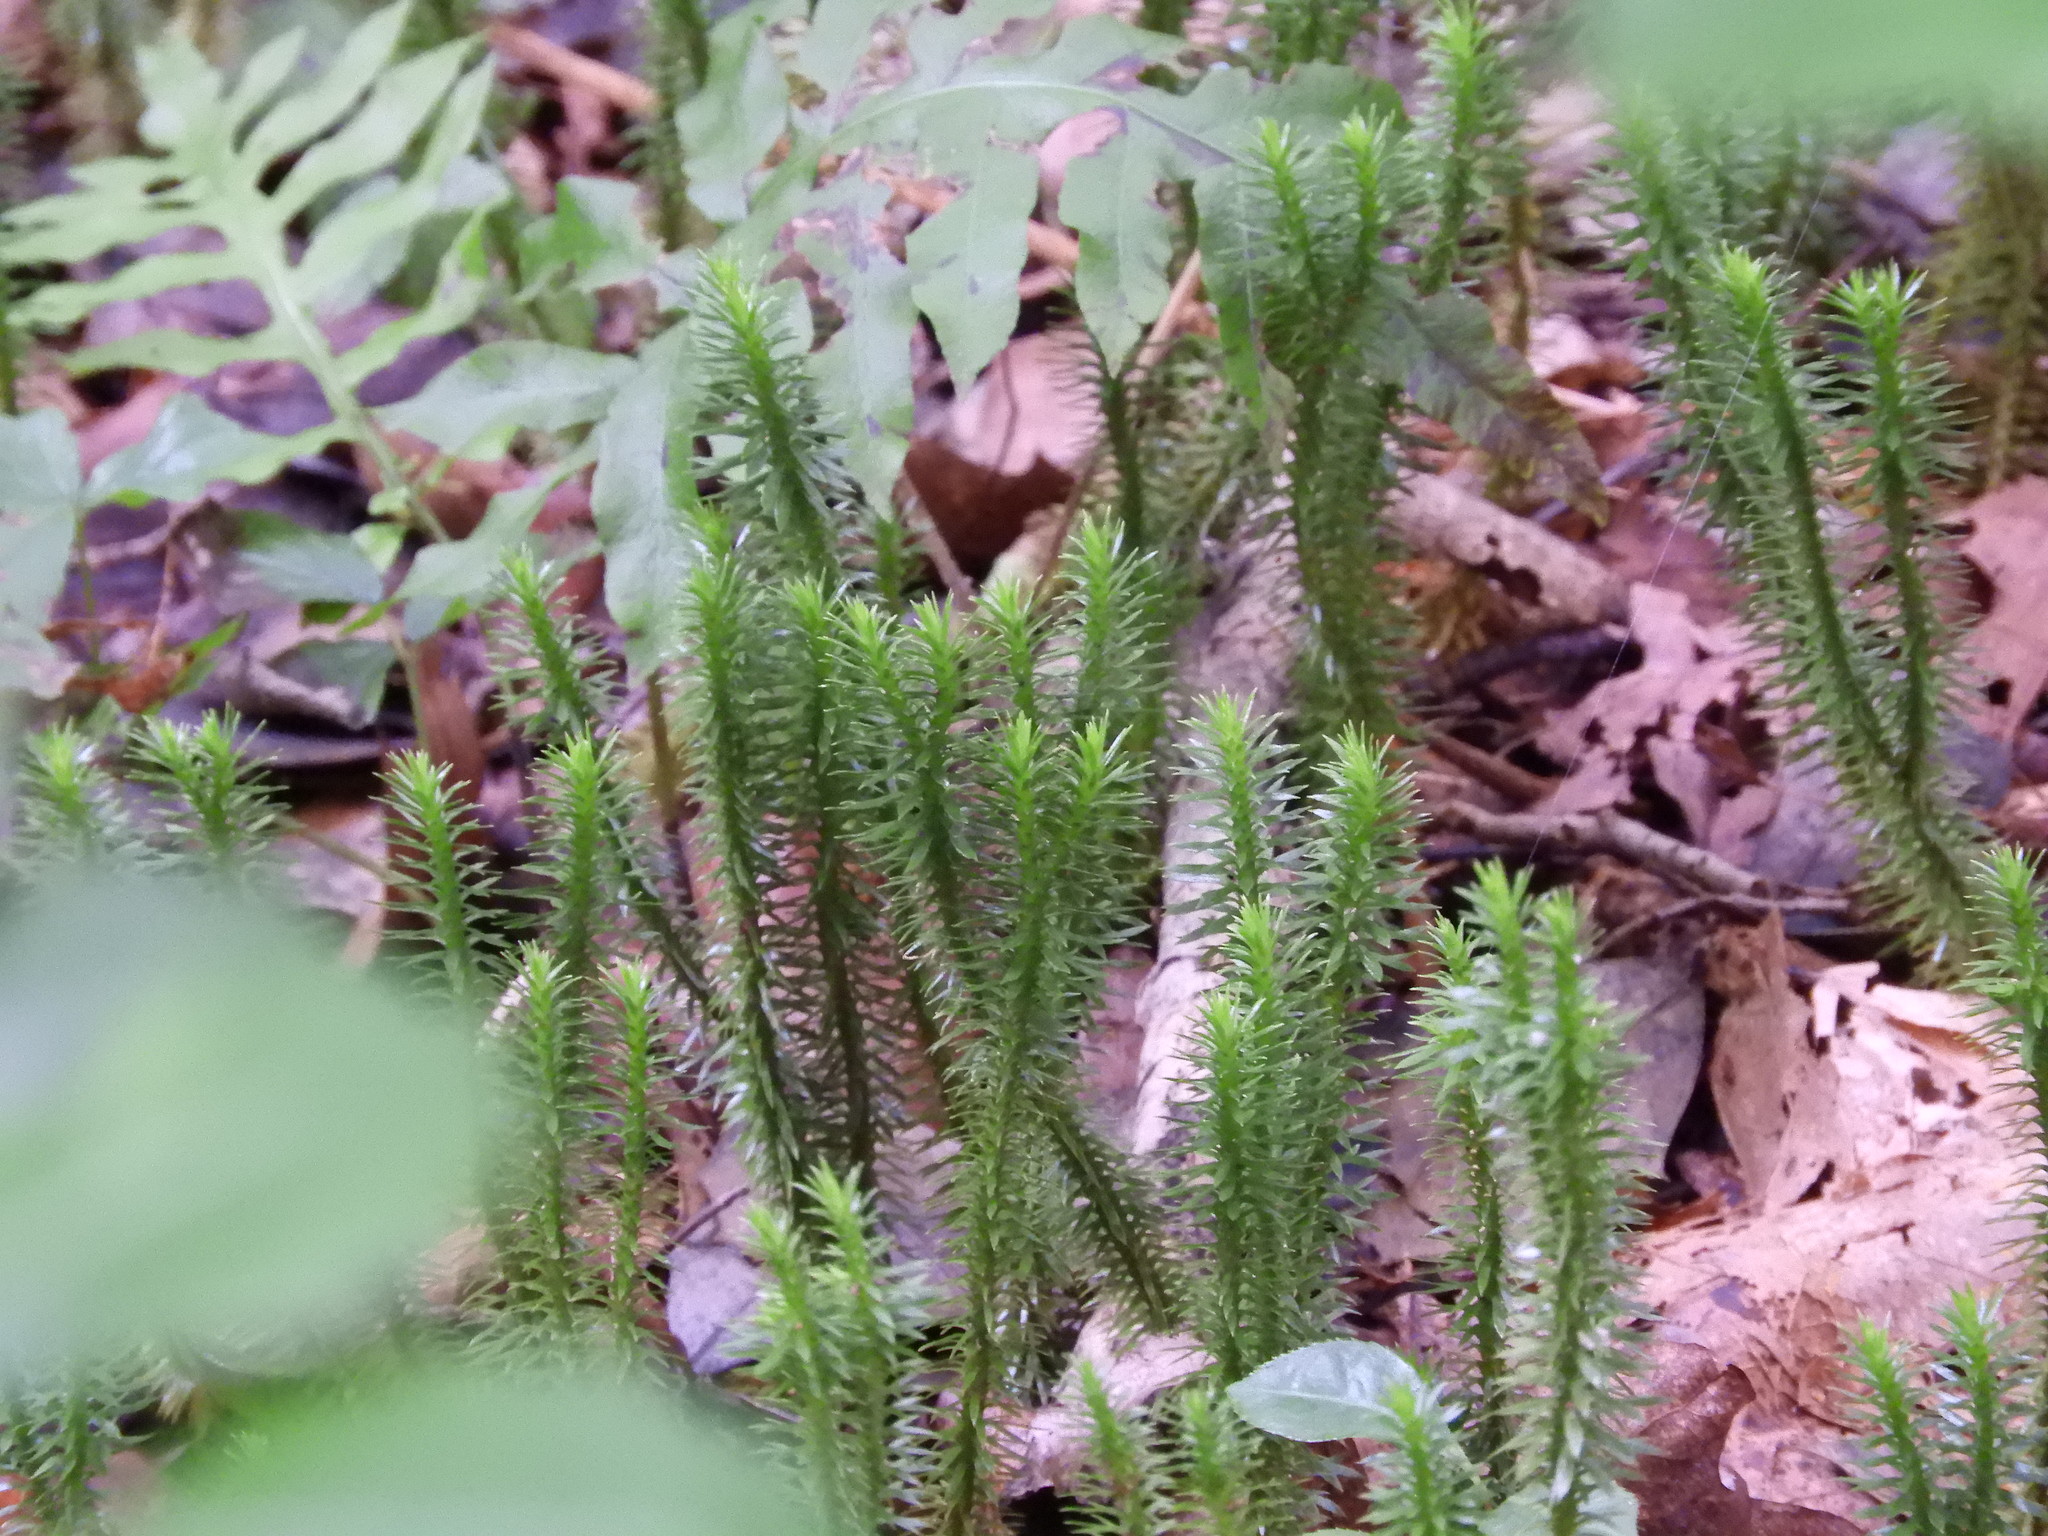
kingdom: Plantae
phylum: Tracheophyta
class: Lycopodiopsida
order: Lycopodiales
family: Lycopodiaceae
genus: Huperzia
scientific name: Huperzia lucidula
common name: Shining clubmoss
